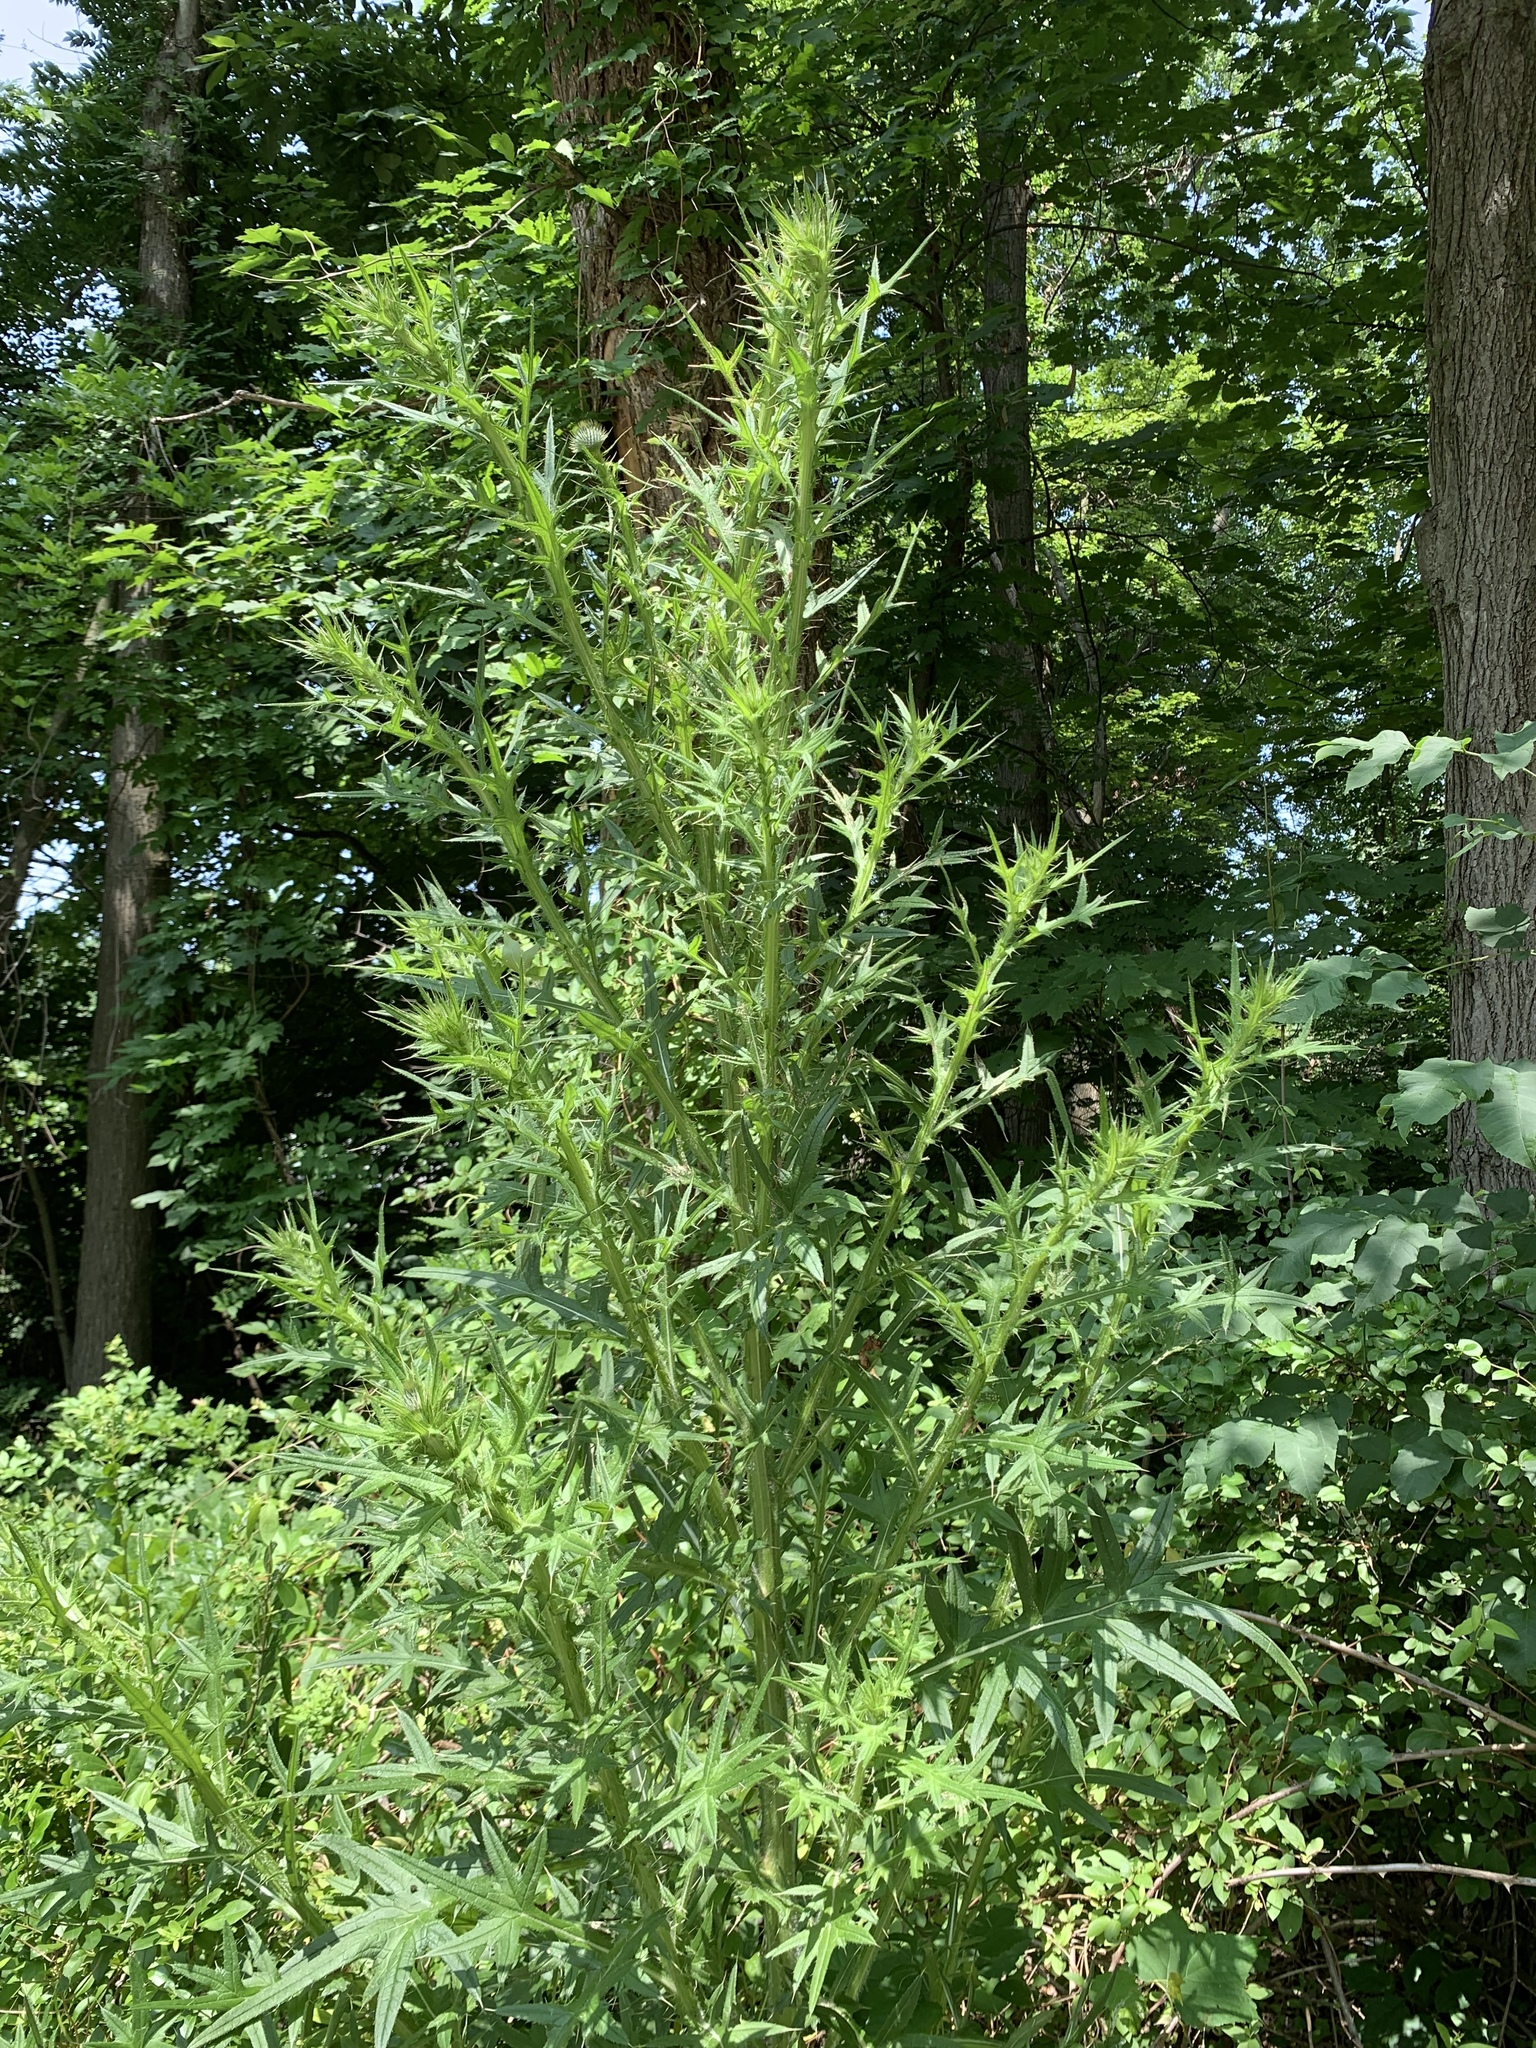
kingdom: Plantae
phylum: Tracheophyta
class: Magnoliopsida
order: Asterales
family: Asteraceae
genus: Cirsium
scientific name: Cirsium vulgare
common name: Bull thistle
